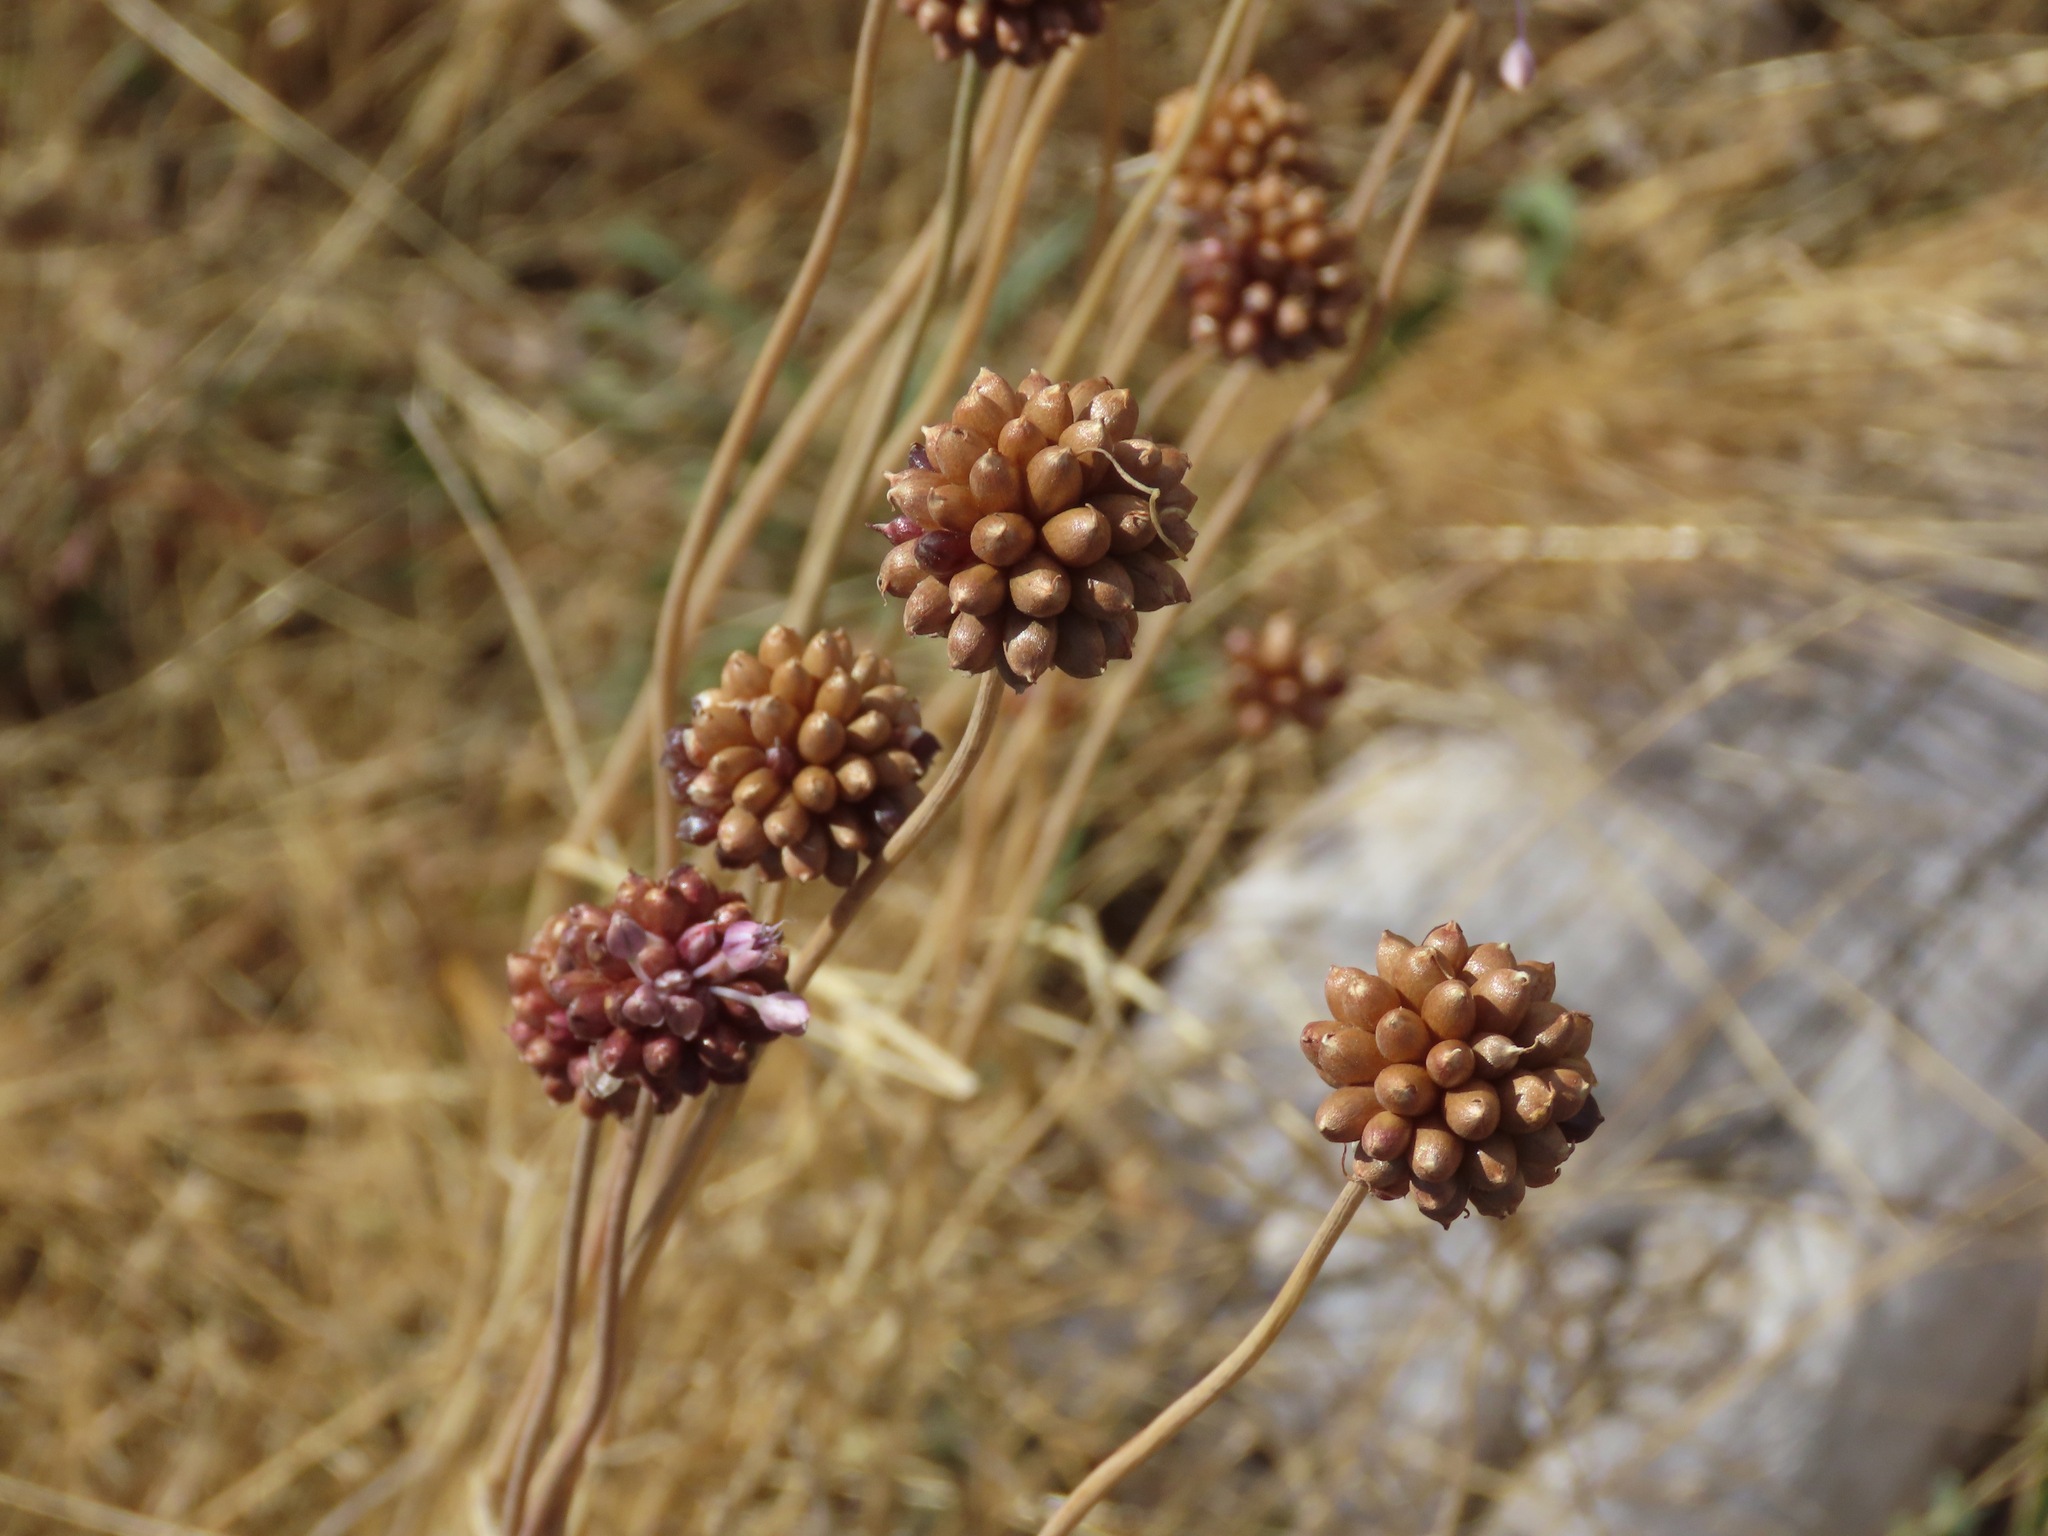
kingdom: Plantae
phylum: Tracheophyta
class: Liliopsida
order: Asparagales
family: Amaryllidaceae
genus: Allium
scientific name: Allium vineale
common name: Crow garlic
